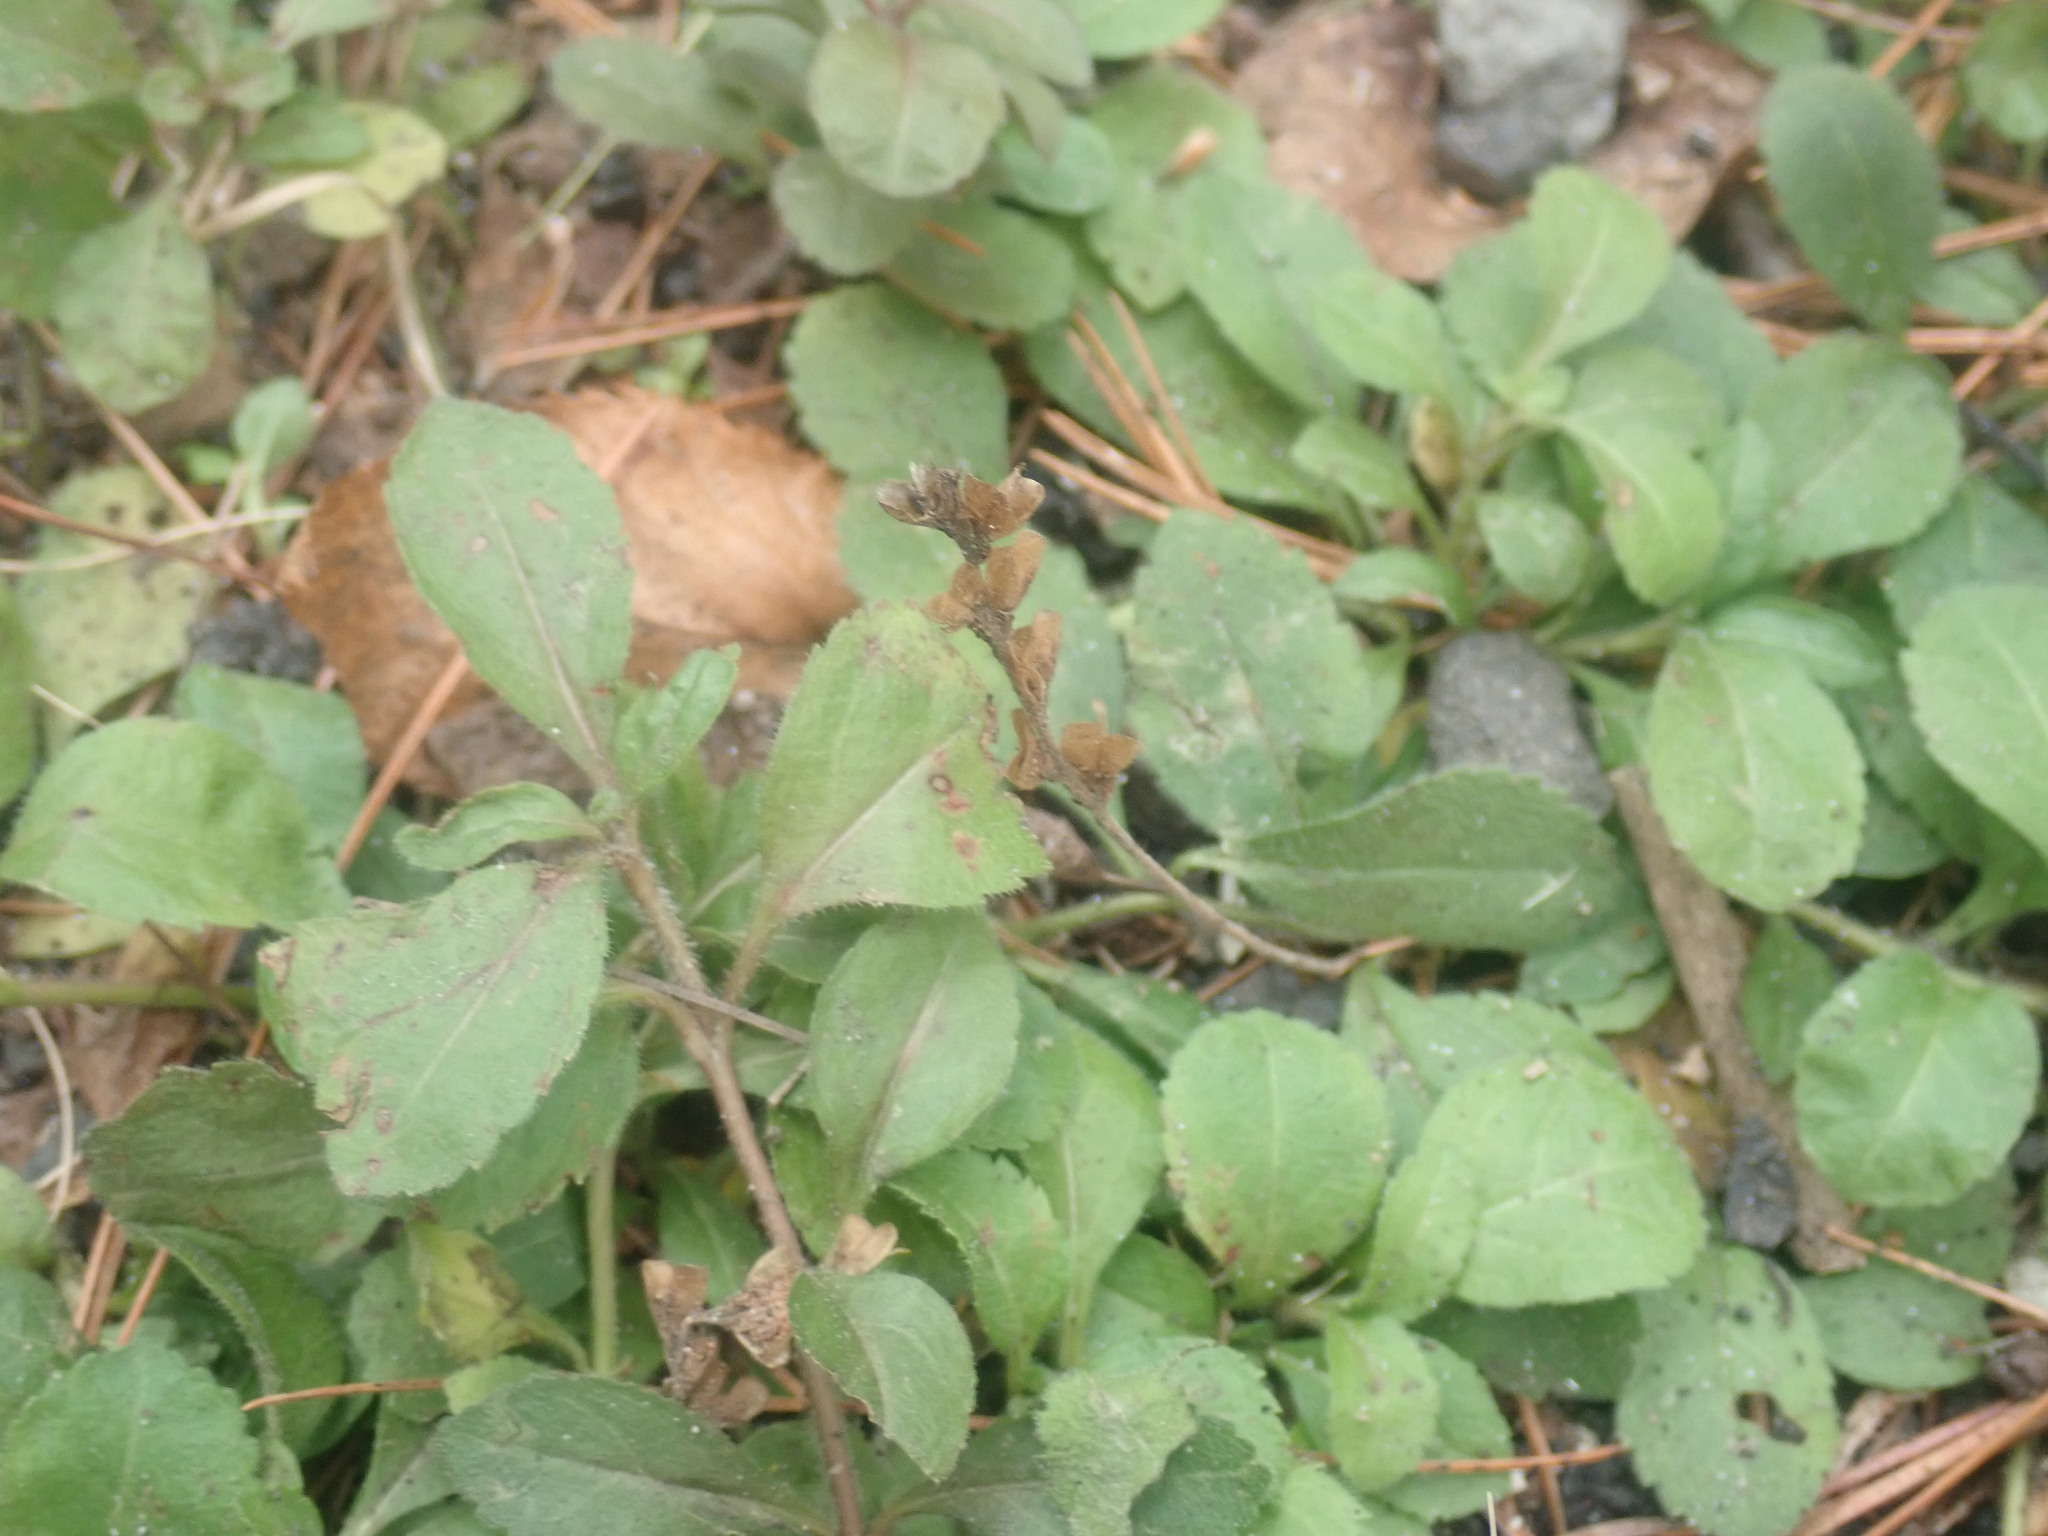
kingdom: Plantae
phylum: Tracheophyta
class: Magnoliopsida
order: Lamiales
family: Plantaginaceae
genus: Veronica
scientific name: Veronica officinalis
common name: Common speedwell
